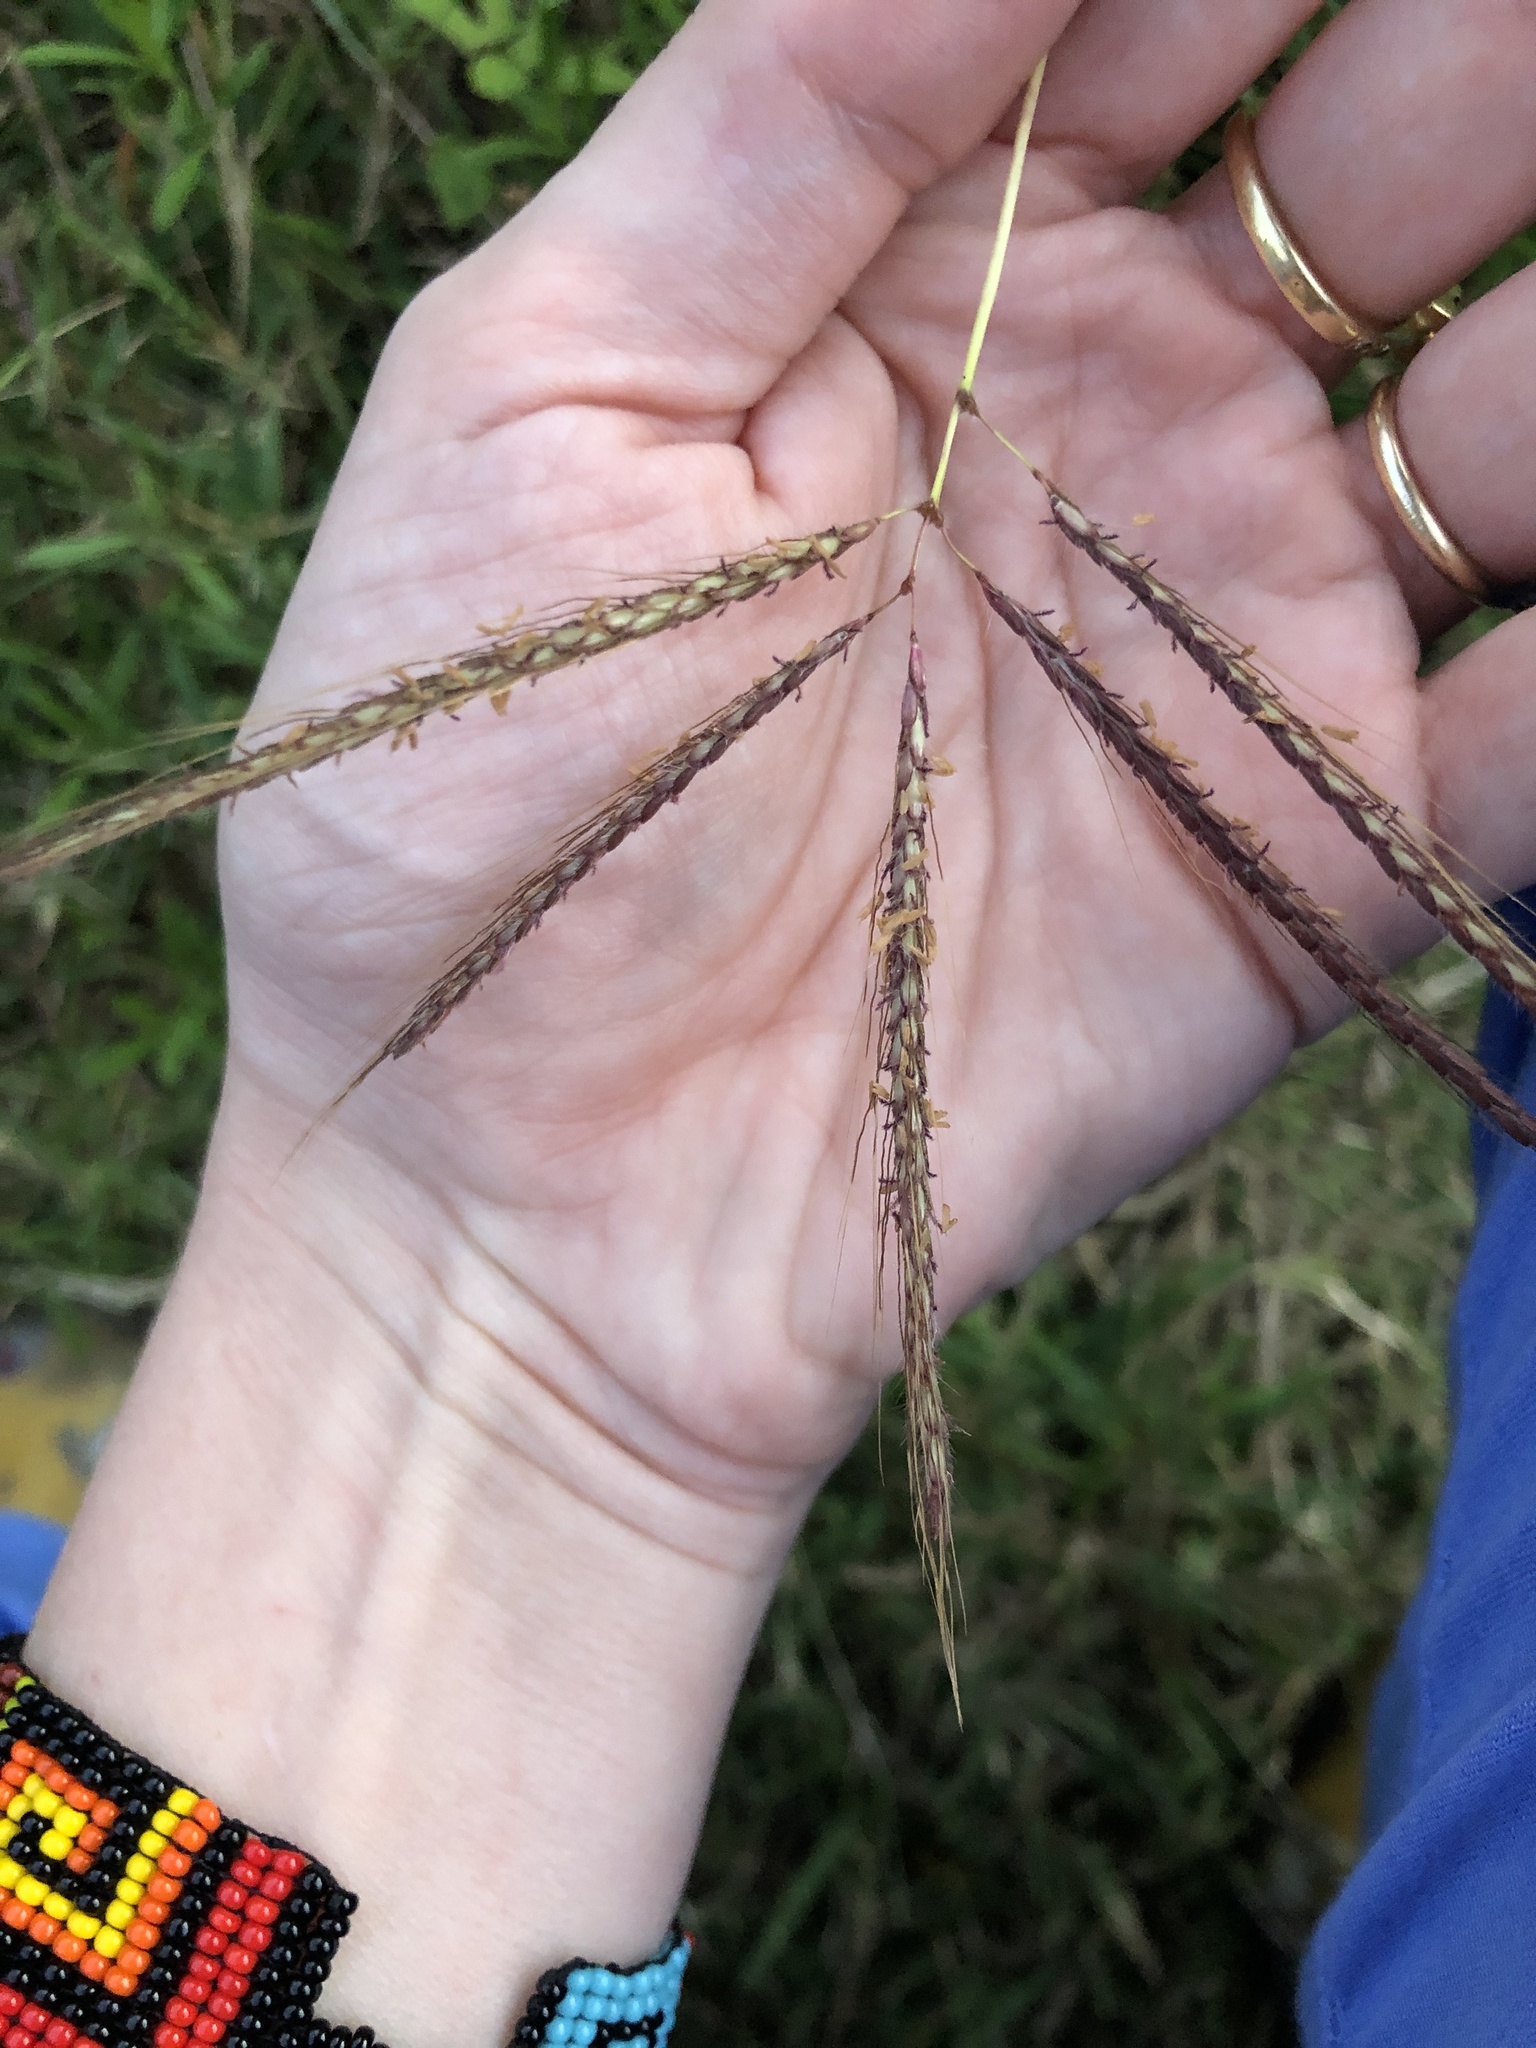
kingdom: Plantae
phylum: Tracheophyta
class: Liliopsida
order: Poales
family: Poaceae
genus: Dichanthium
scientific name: Dichanthium annulatum
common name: Kleberg's bluestem
